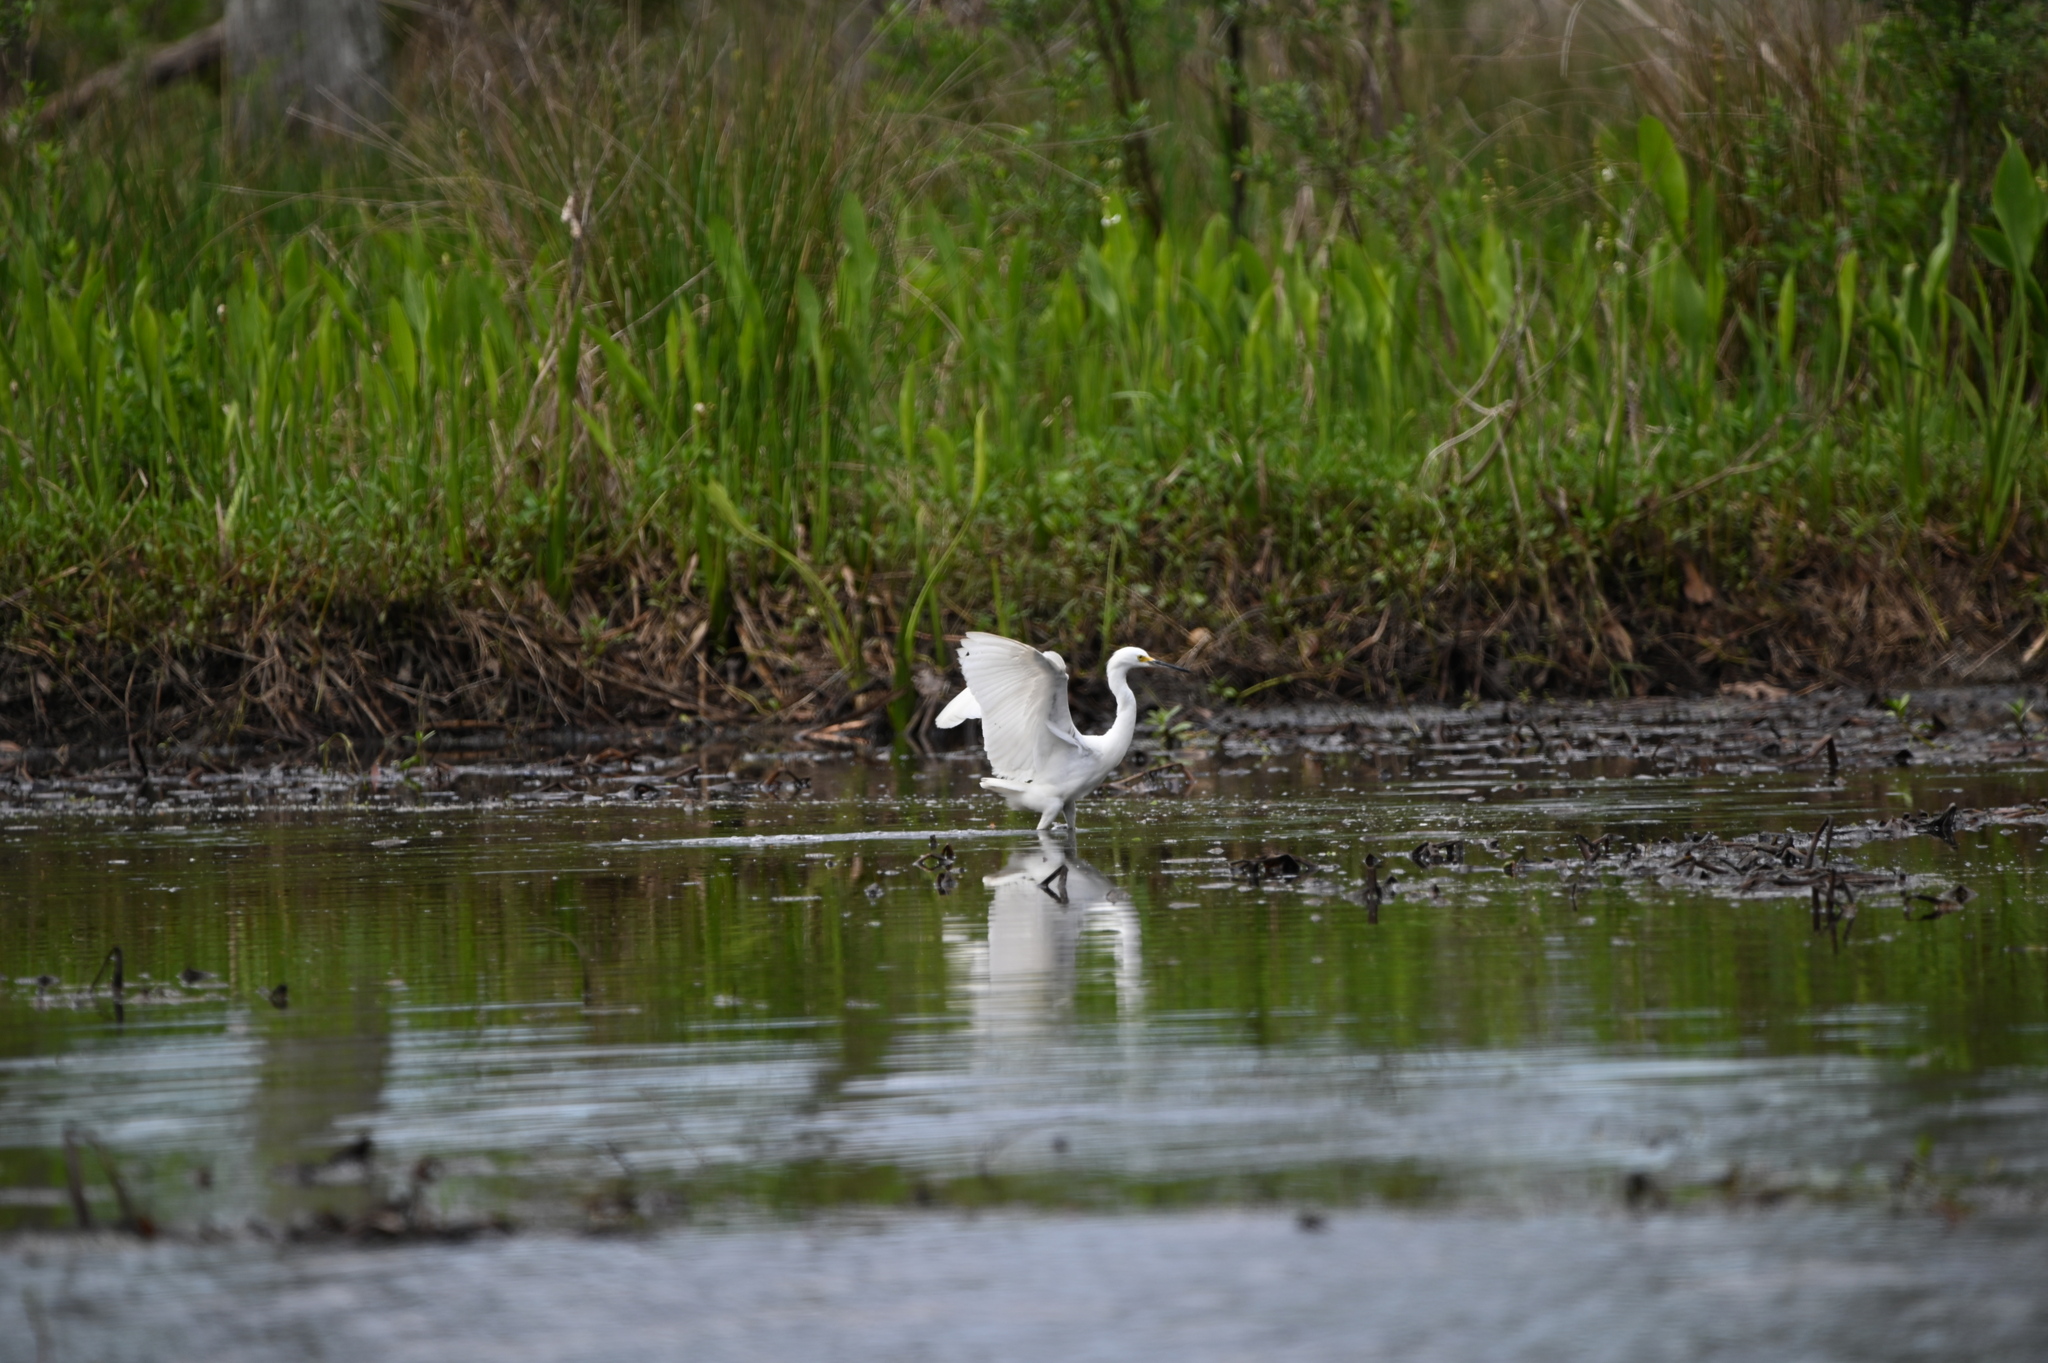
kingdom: Animalia
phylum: Chordata
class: Aves
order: Pelecaniformes
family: Ardeidae
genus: Egretta
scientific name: Egretta thula
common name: Snowy egret
